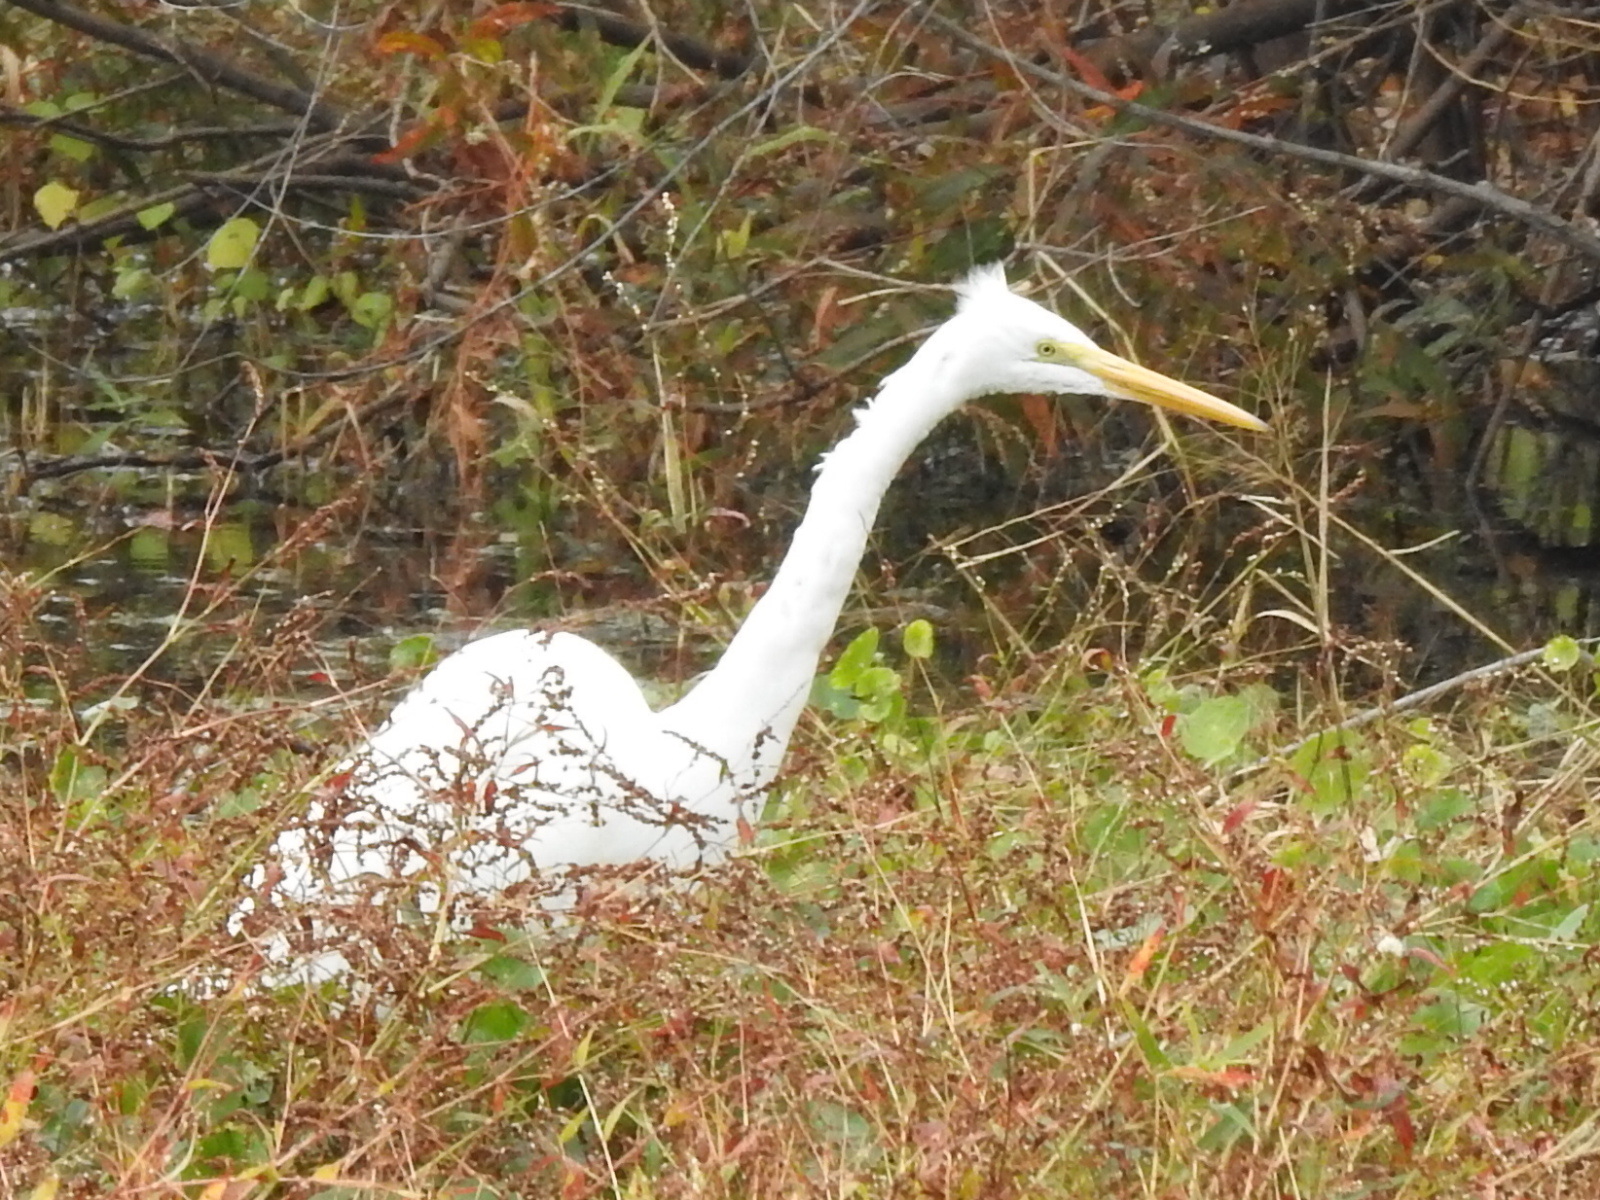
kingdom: Animalia
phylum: Chordata
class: Aves
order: Pelecaniformes
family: Ardeidae
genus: Ardea
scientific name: Ardea alba
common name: Great egret
